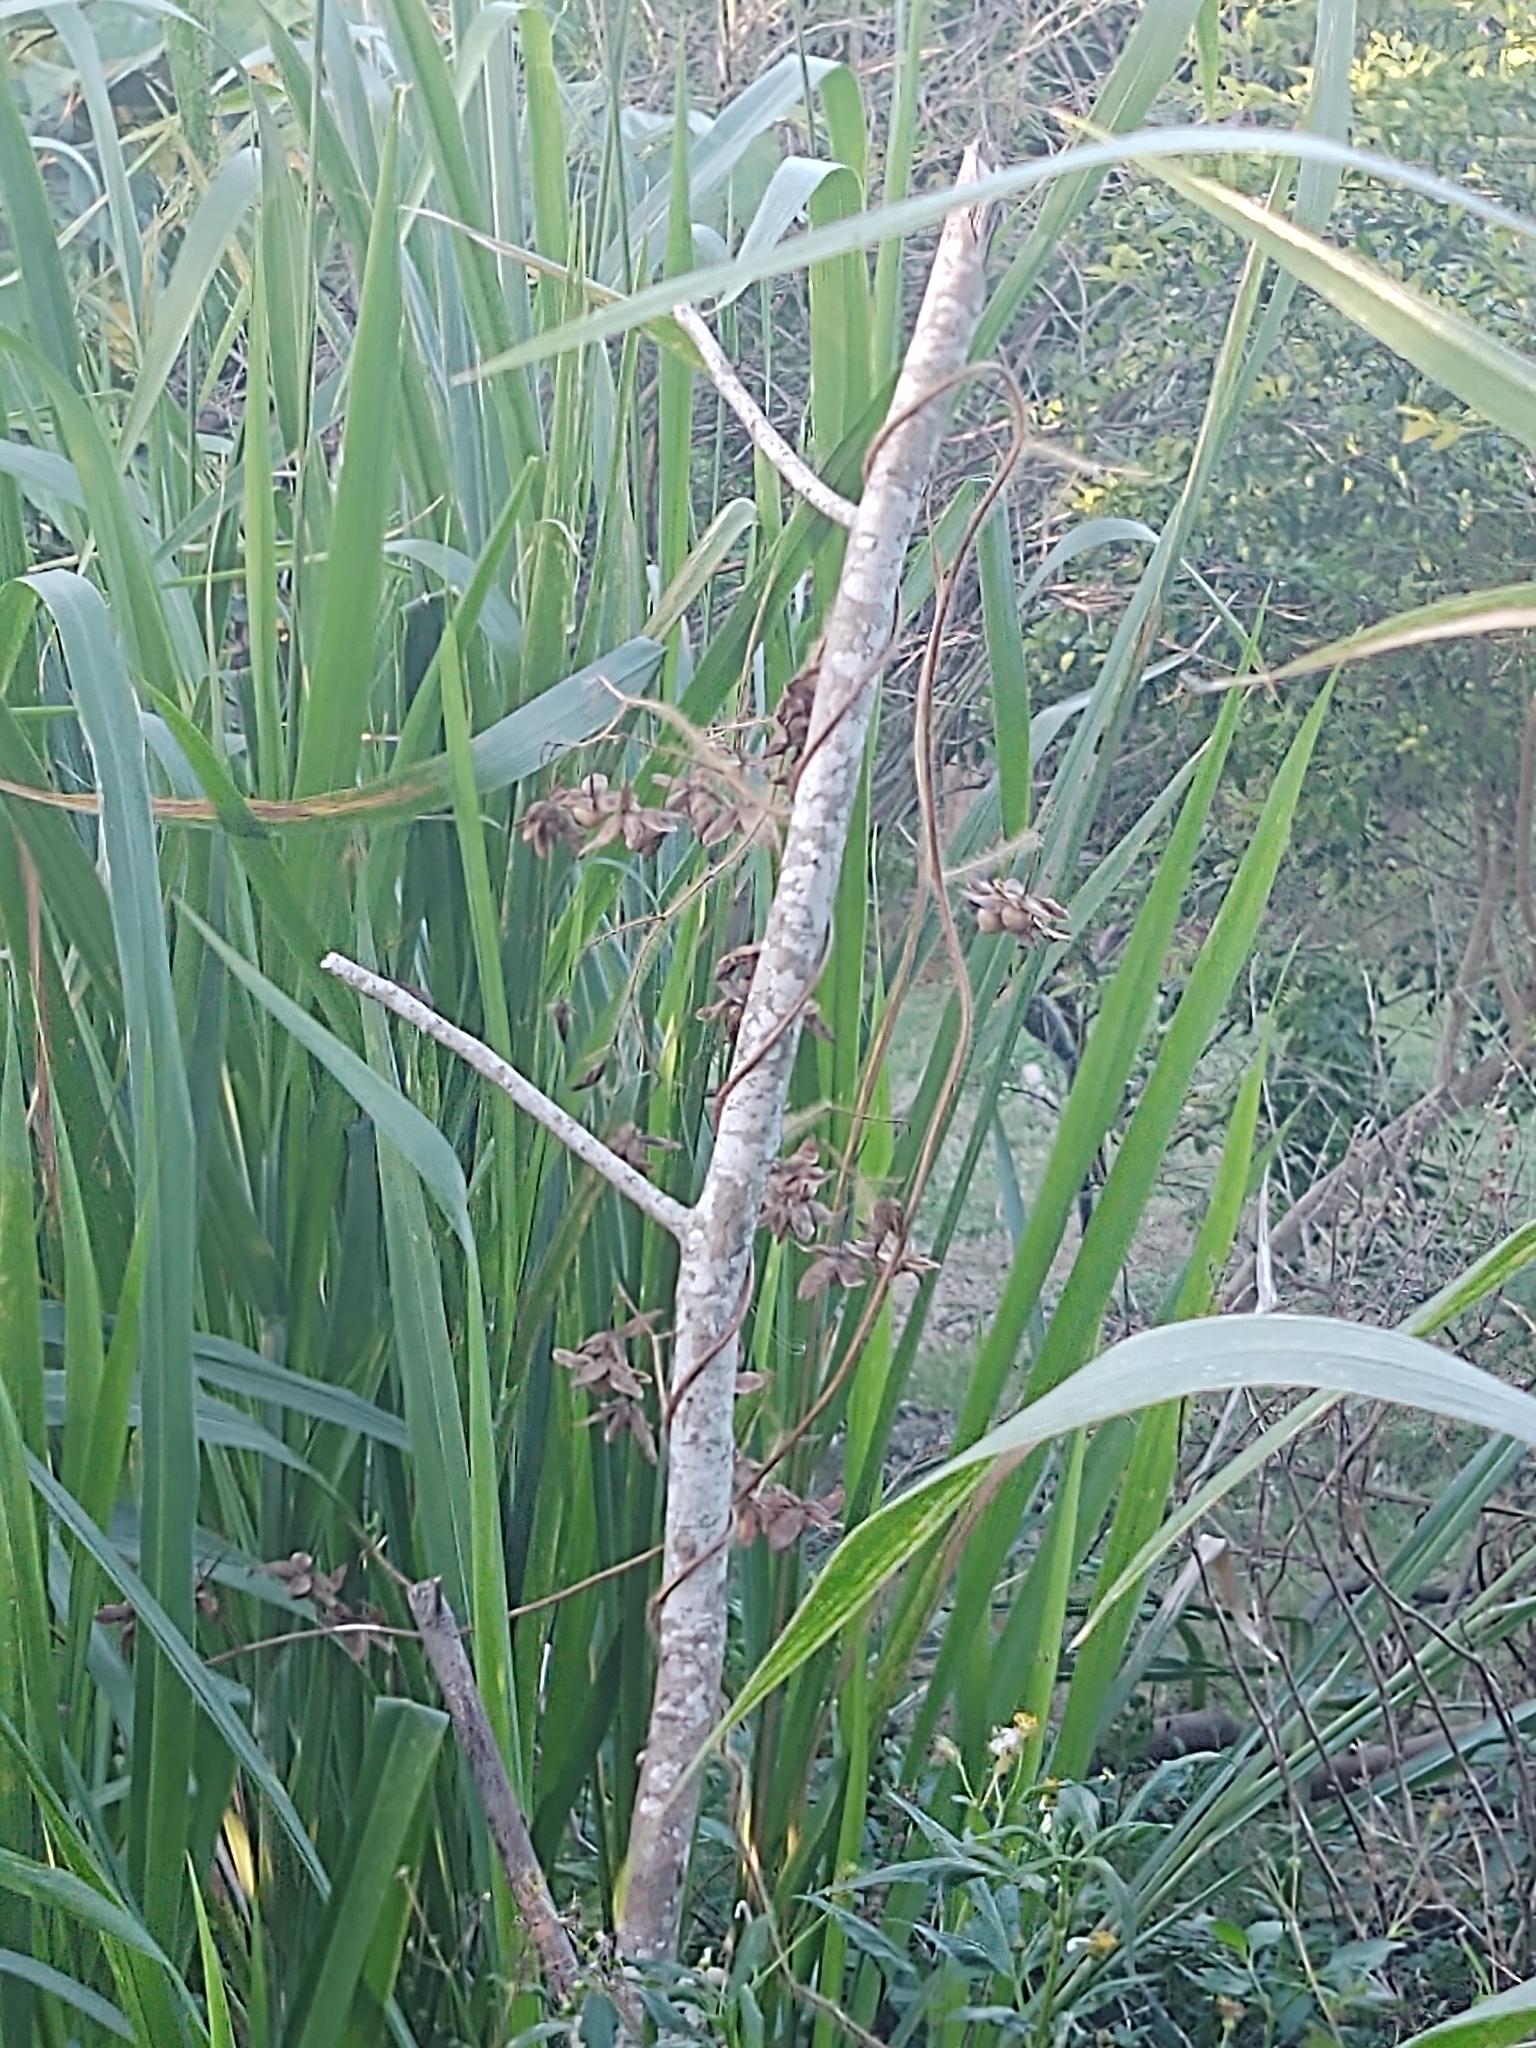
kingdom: Plantae
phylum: Tracheophyta
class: Magnoliopsida
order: Solanales
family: Convolvulaceae
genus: Distimake
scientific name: Distimake aegyptius
